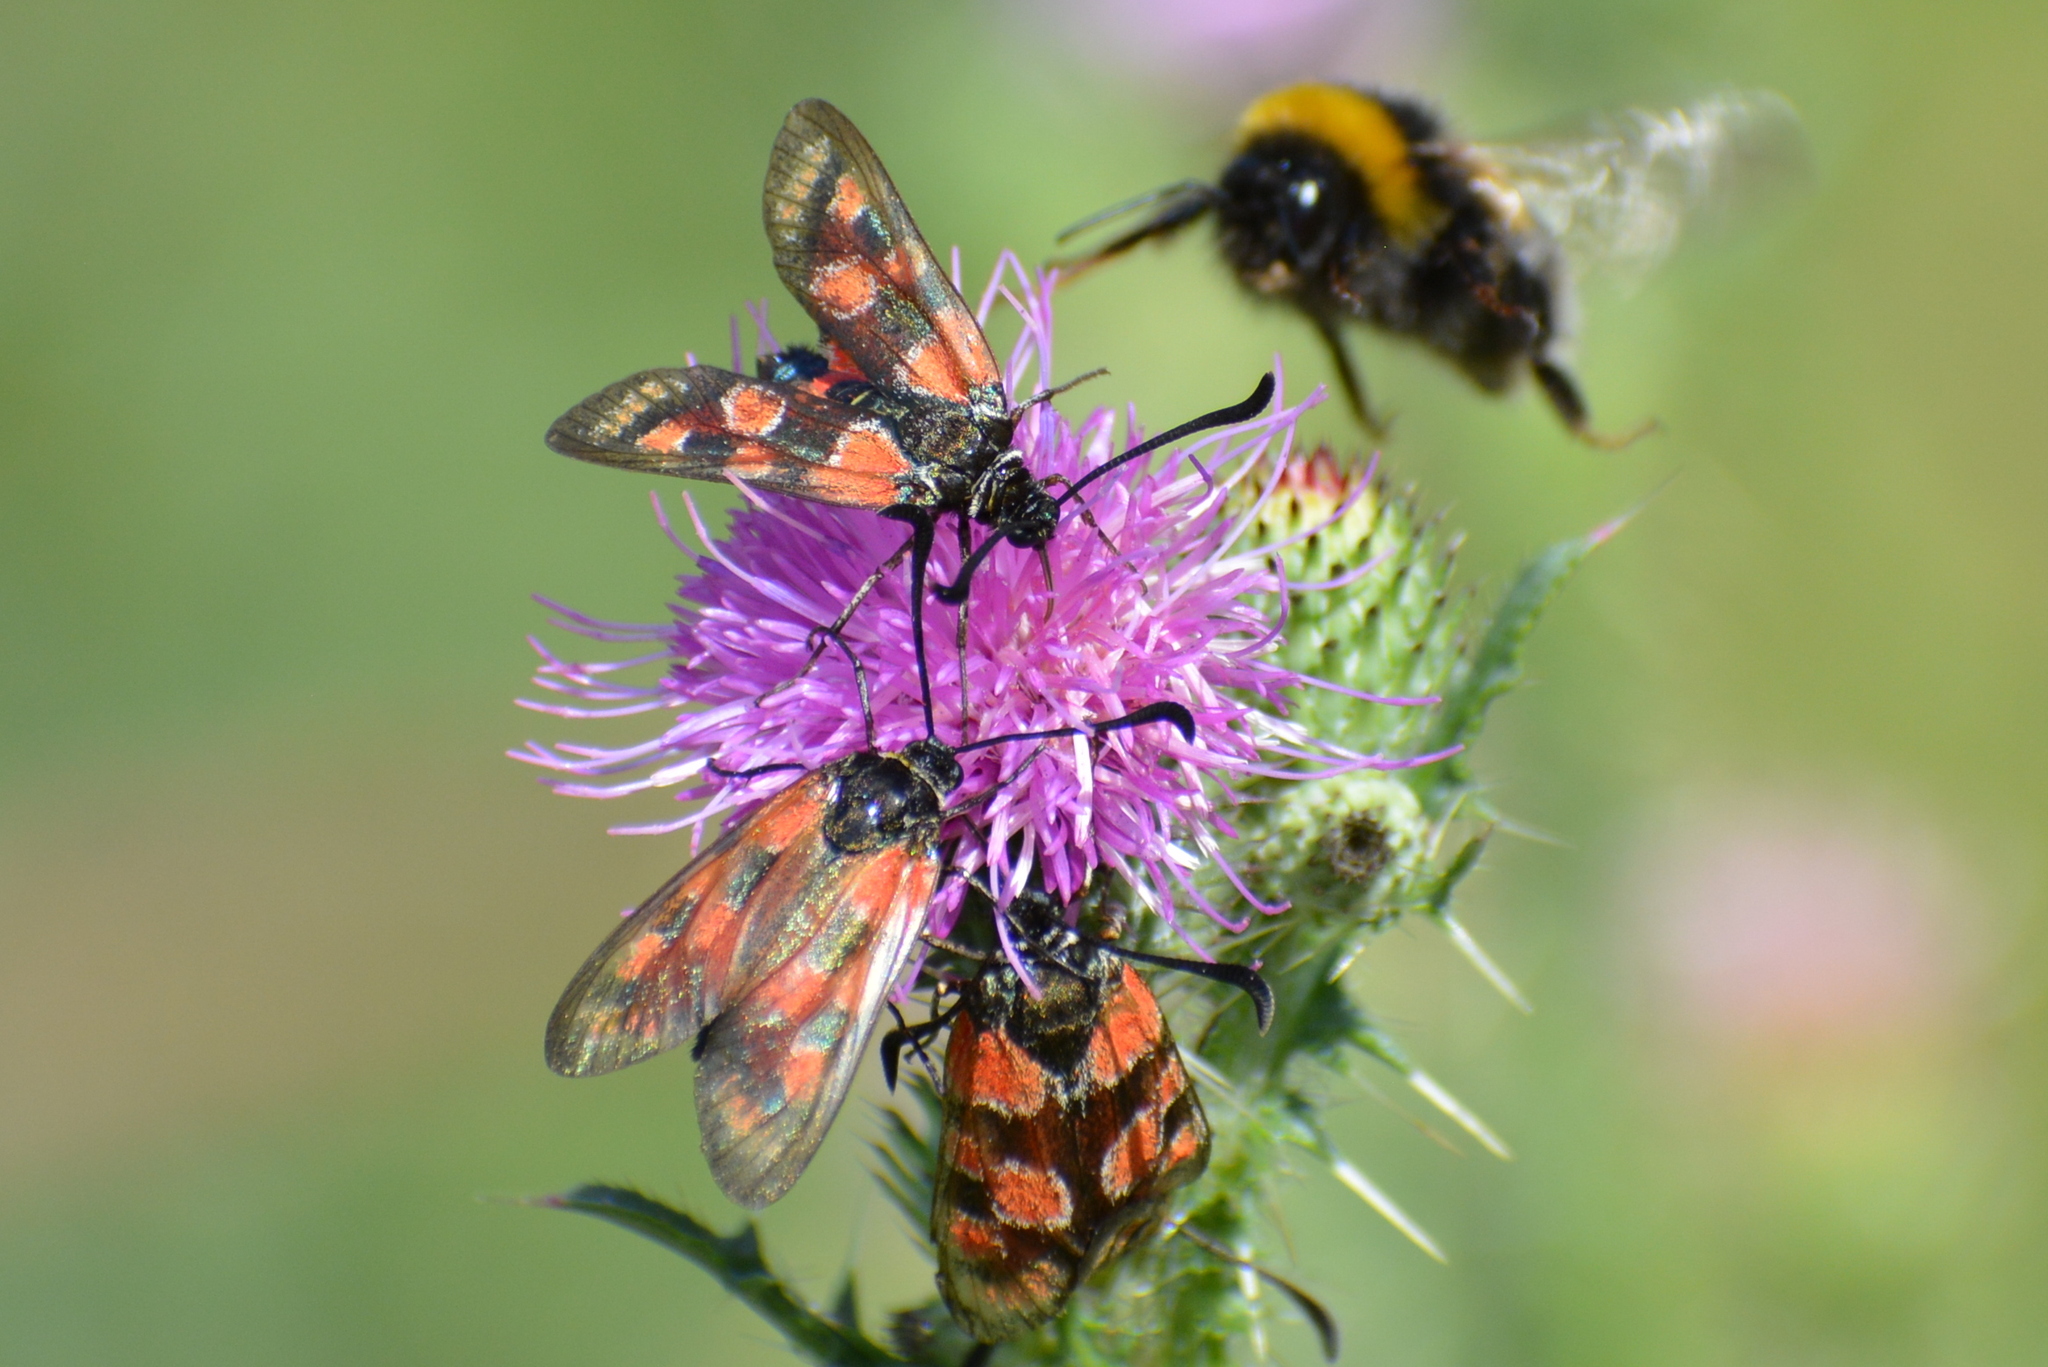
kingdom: Animalia
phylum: Arthropoda
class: Insecta
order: Lepidoptera
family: Zygaenidae
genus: Zygaena
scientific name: Zygaena carniolica
